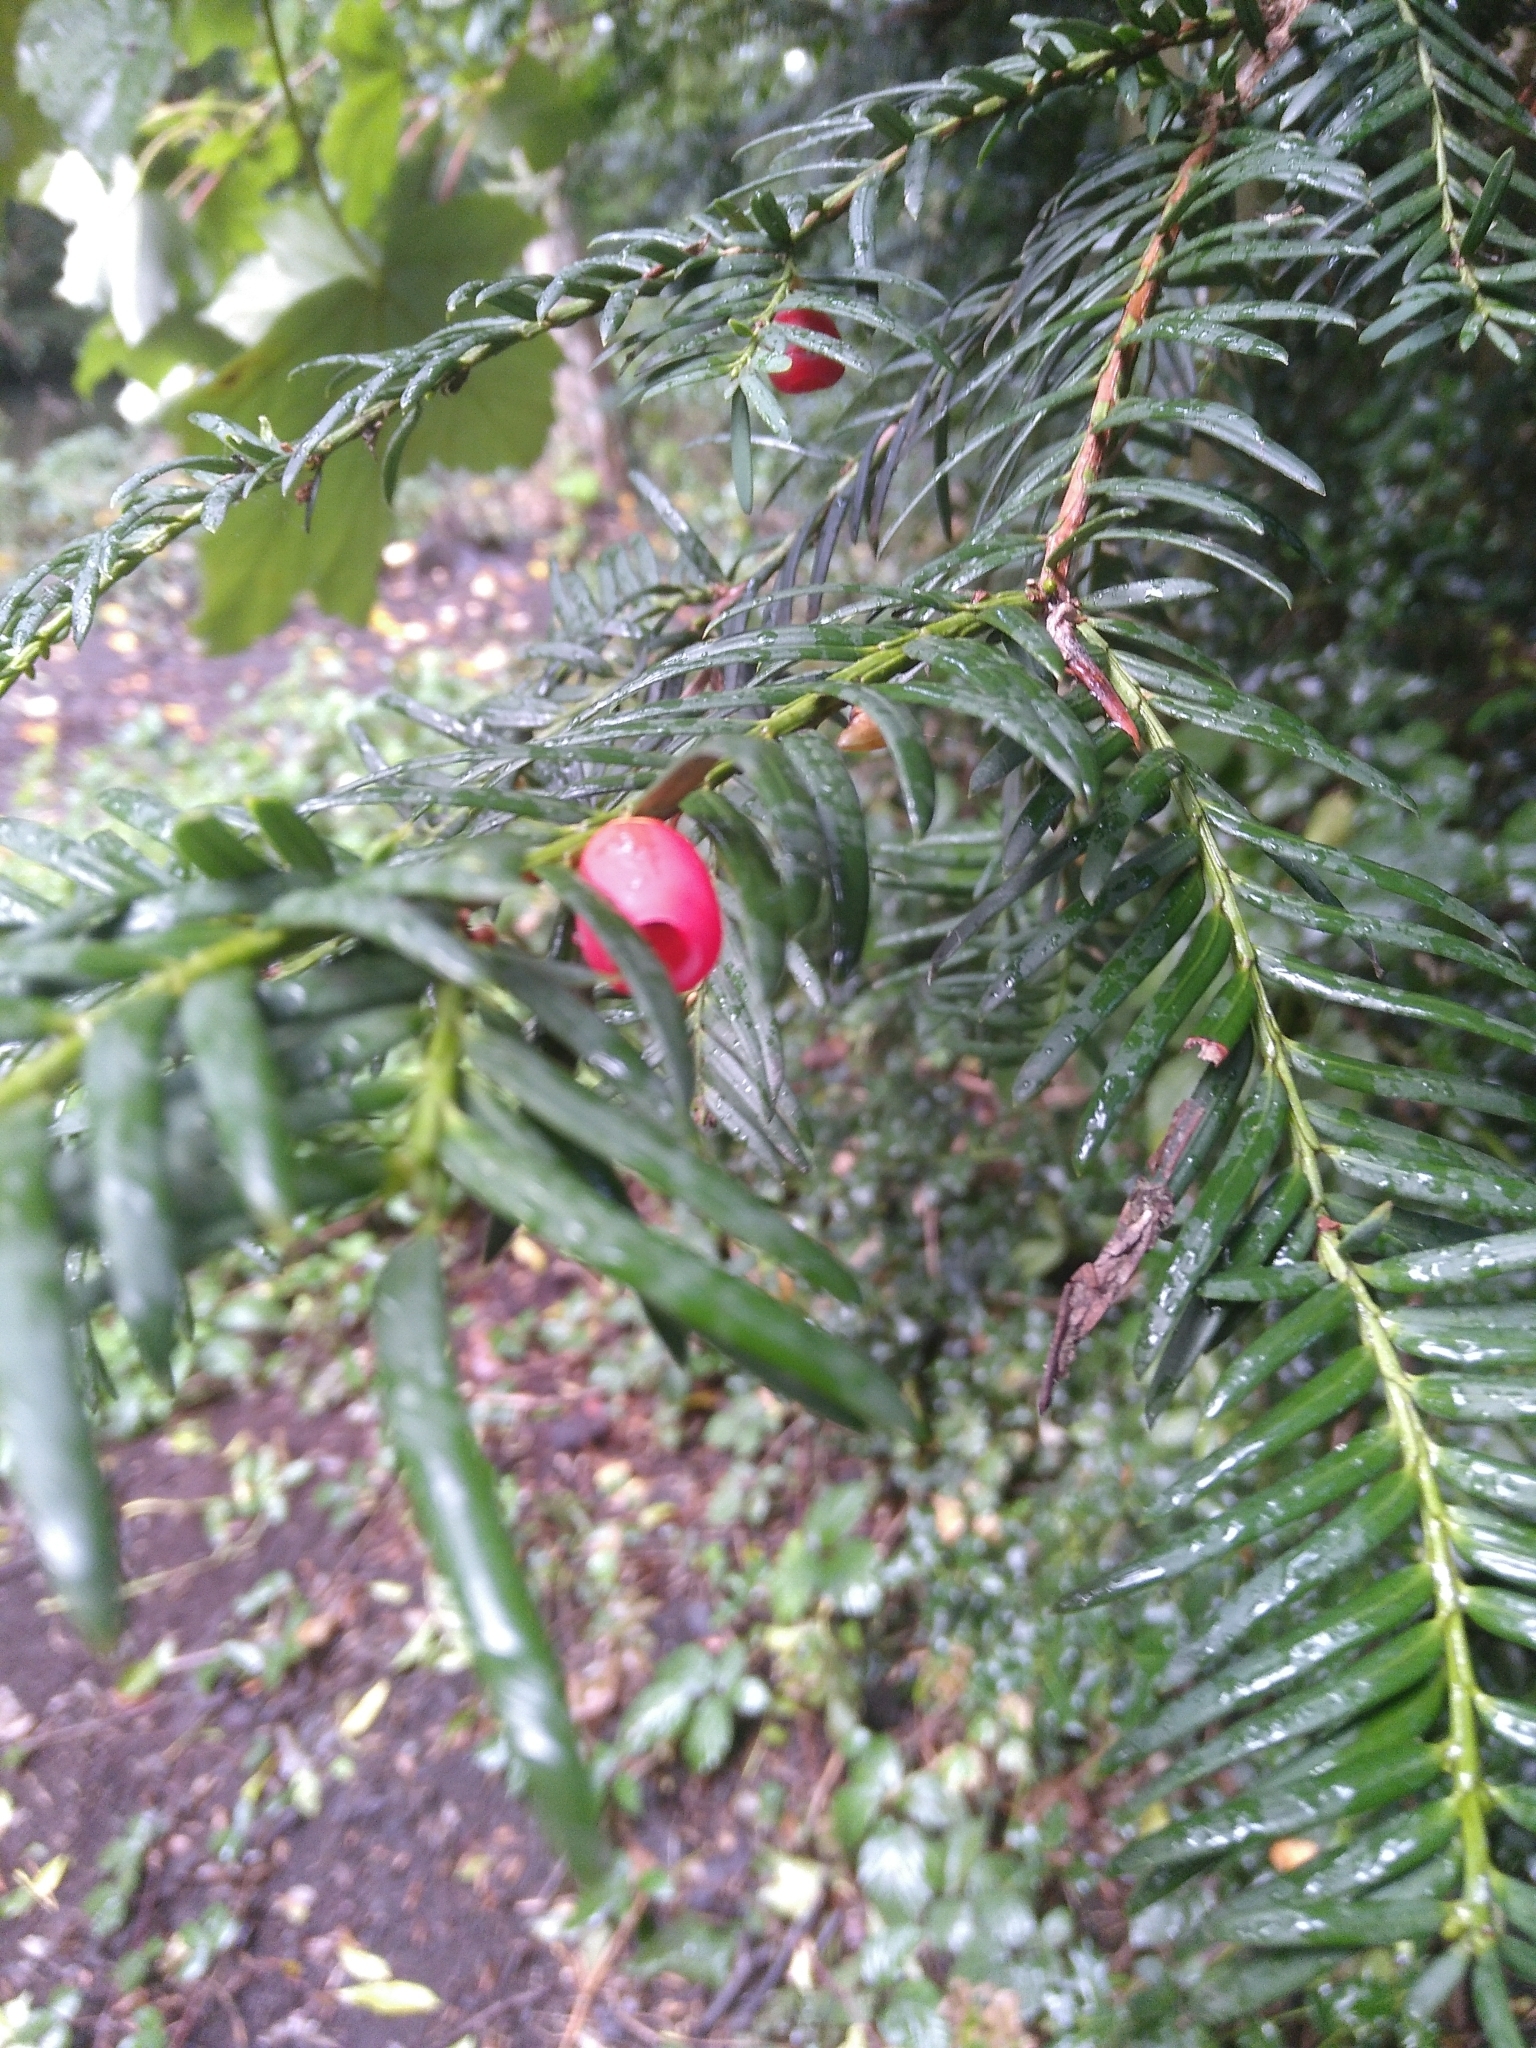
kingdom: Plantae
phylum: Tracheophyta
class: Pinopsida
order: Pinales
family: Taxaceae
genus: Taxus
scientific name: Taxus baccata
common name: Yew
